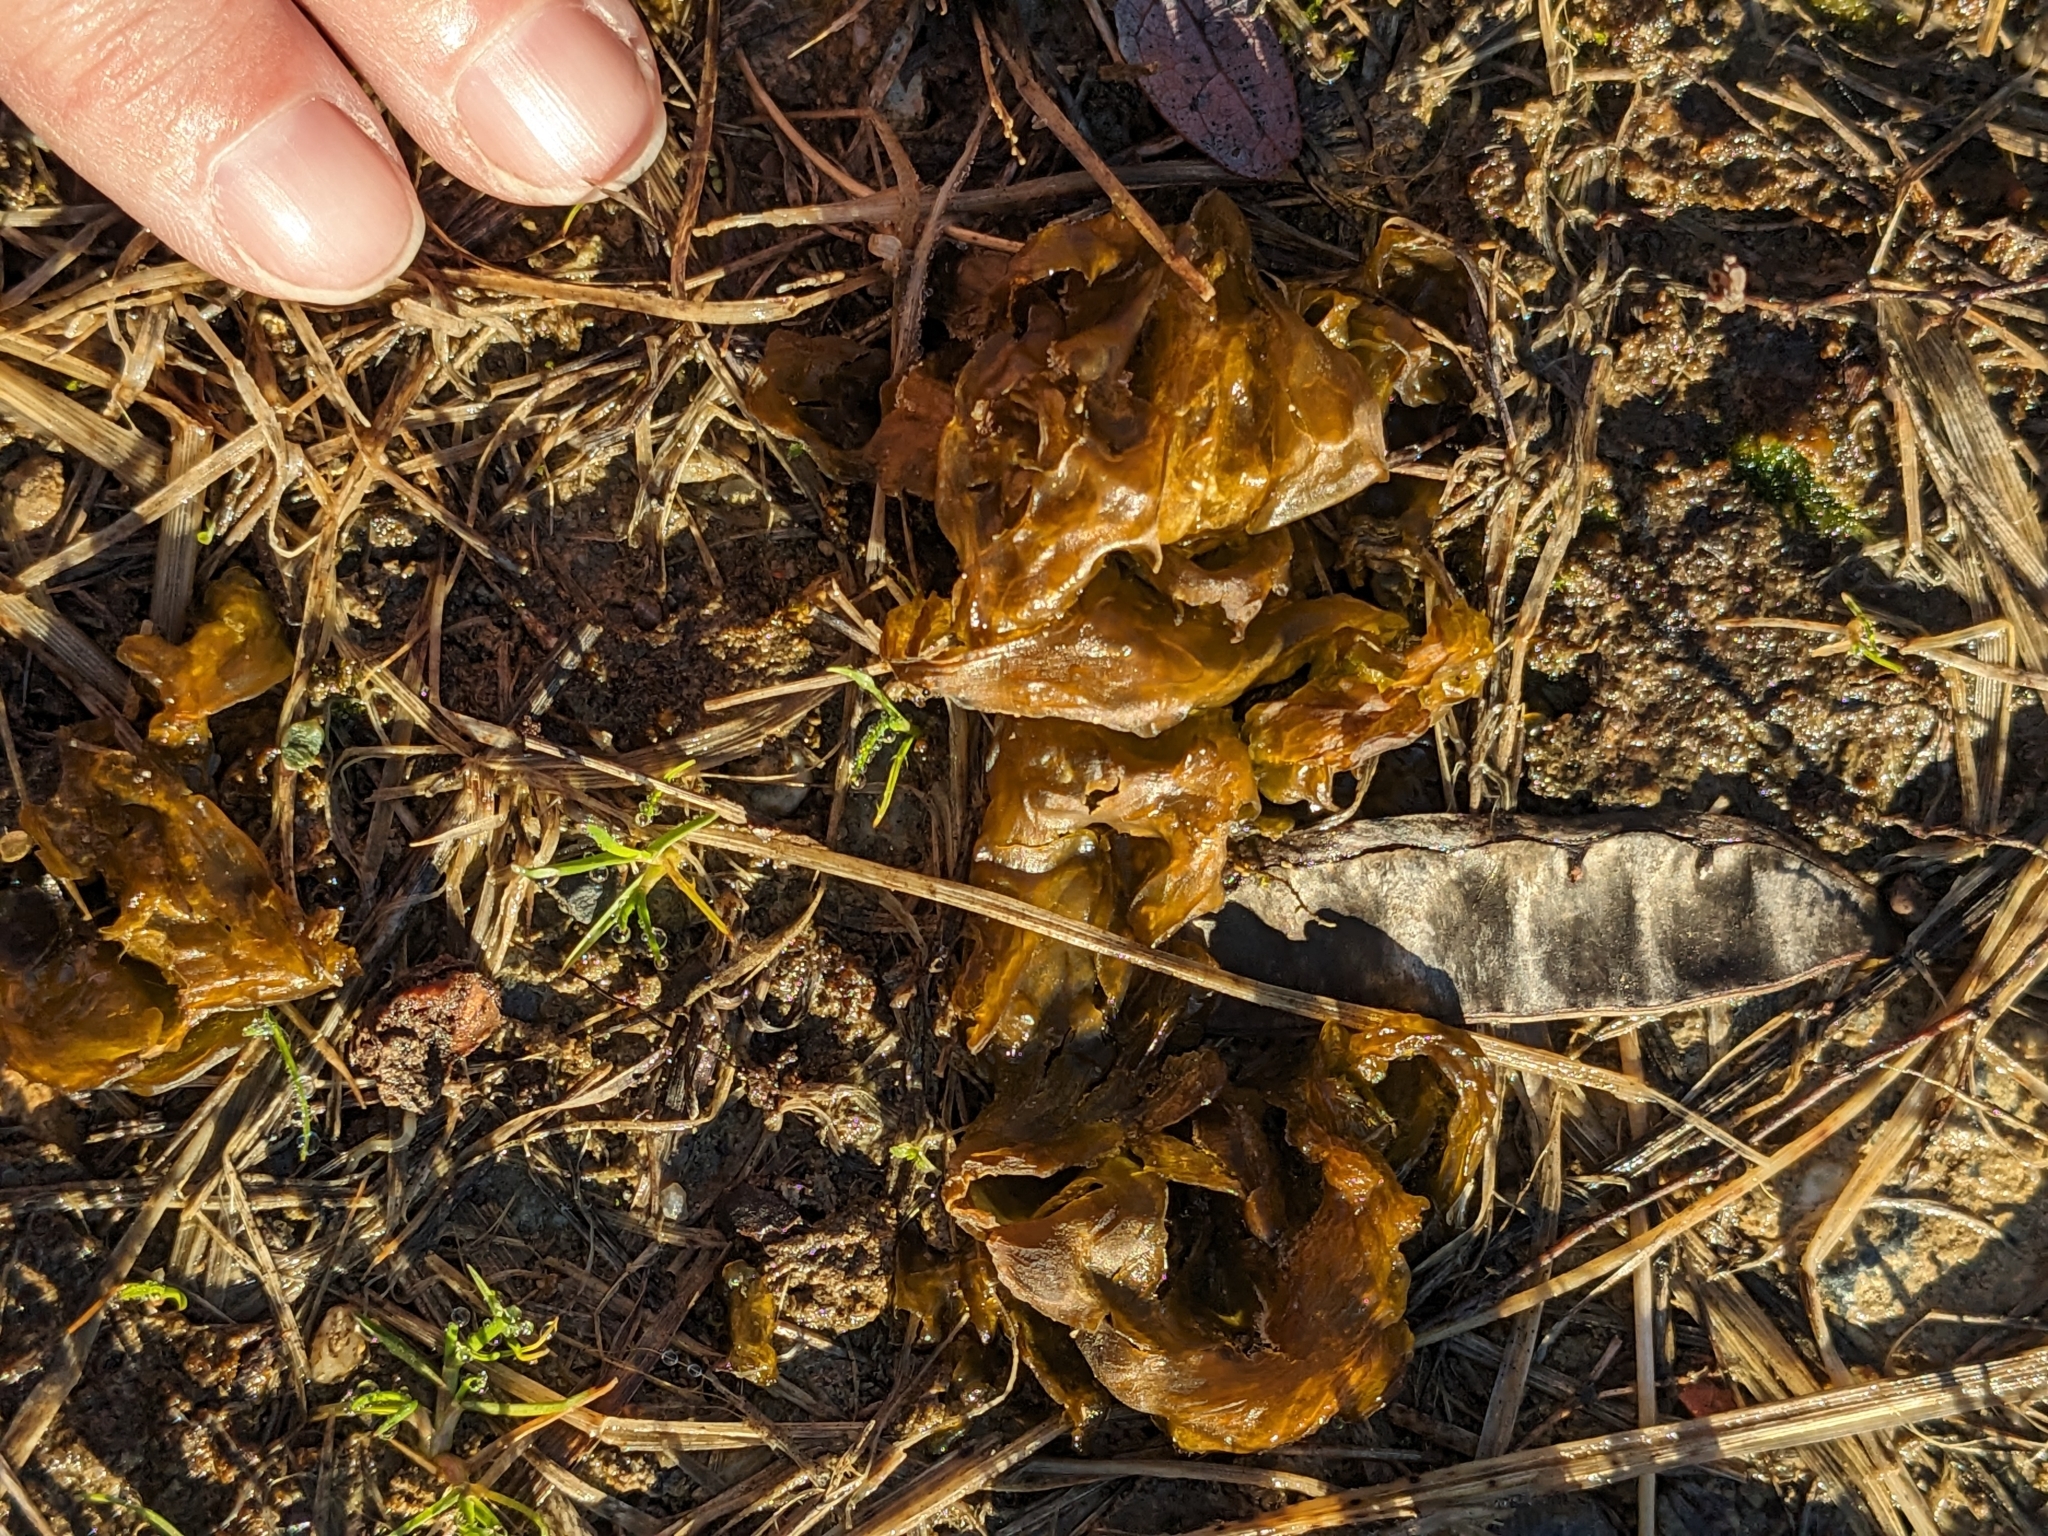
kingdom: Bacteria
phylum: Cyanobacteria
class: Cyanobacteriia
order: Cyanobacteriales
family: Nostocaceae
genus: Nostoc
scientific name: Nostoc commune
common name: Star jelly
